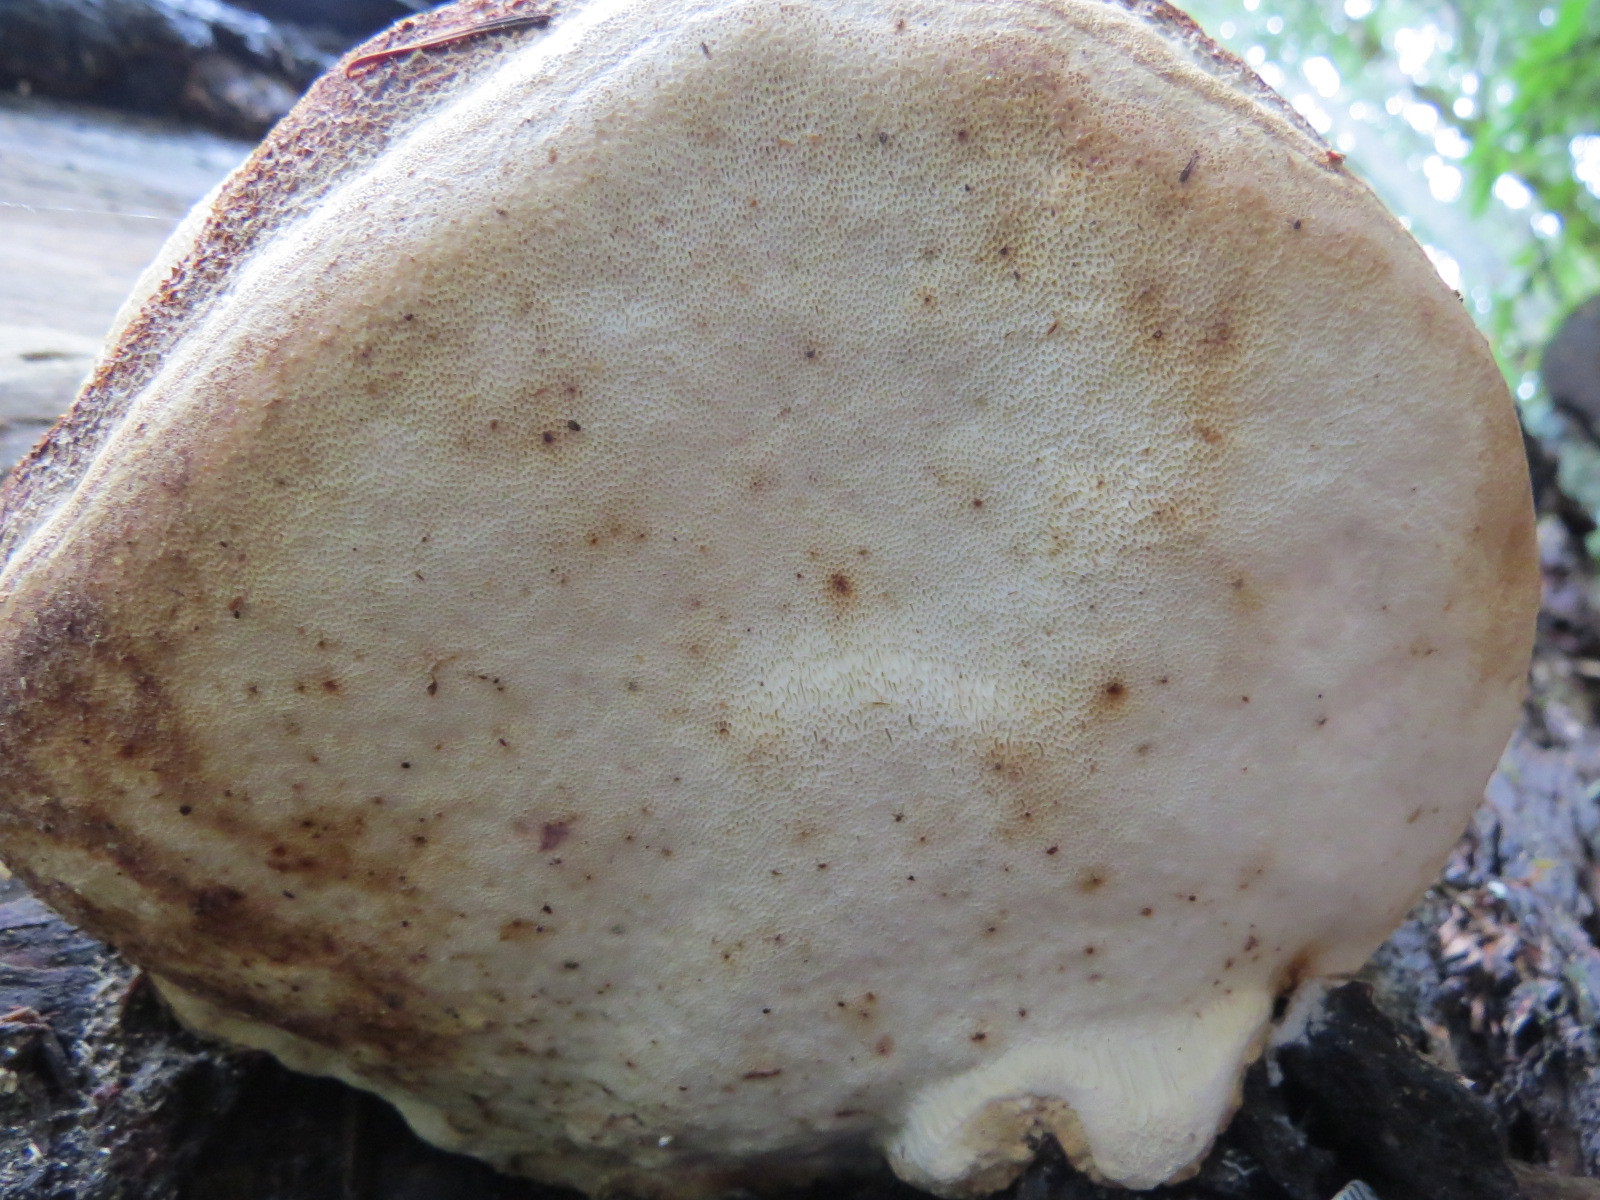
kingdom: Fungi
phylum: Basidiomycota
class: Agaricomycetes
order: Polyporales
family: Fomitopsidaceae
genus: Fomitopsis
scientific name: Fomitopsis officinalis
